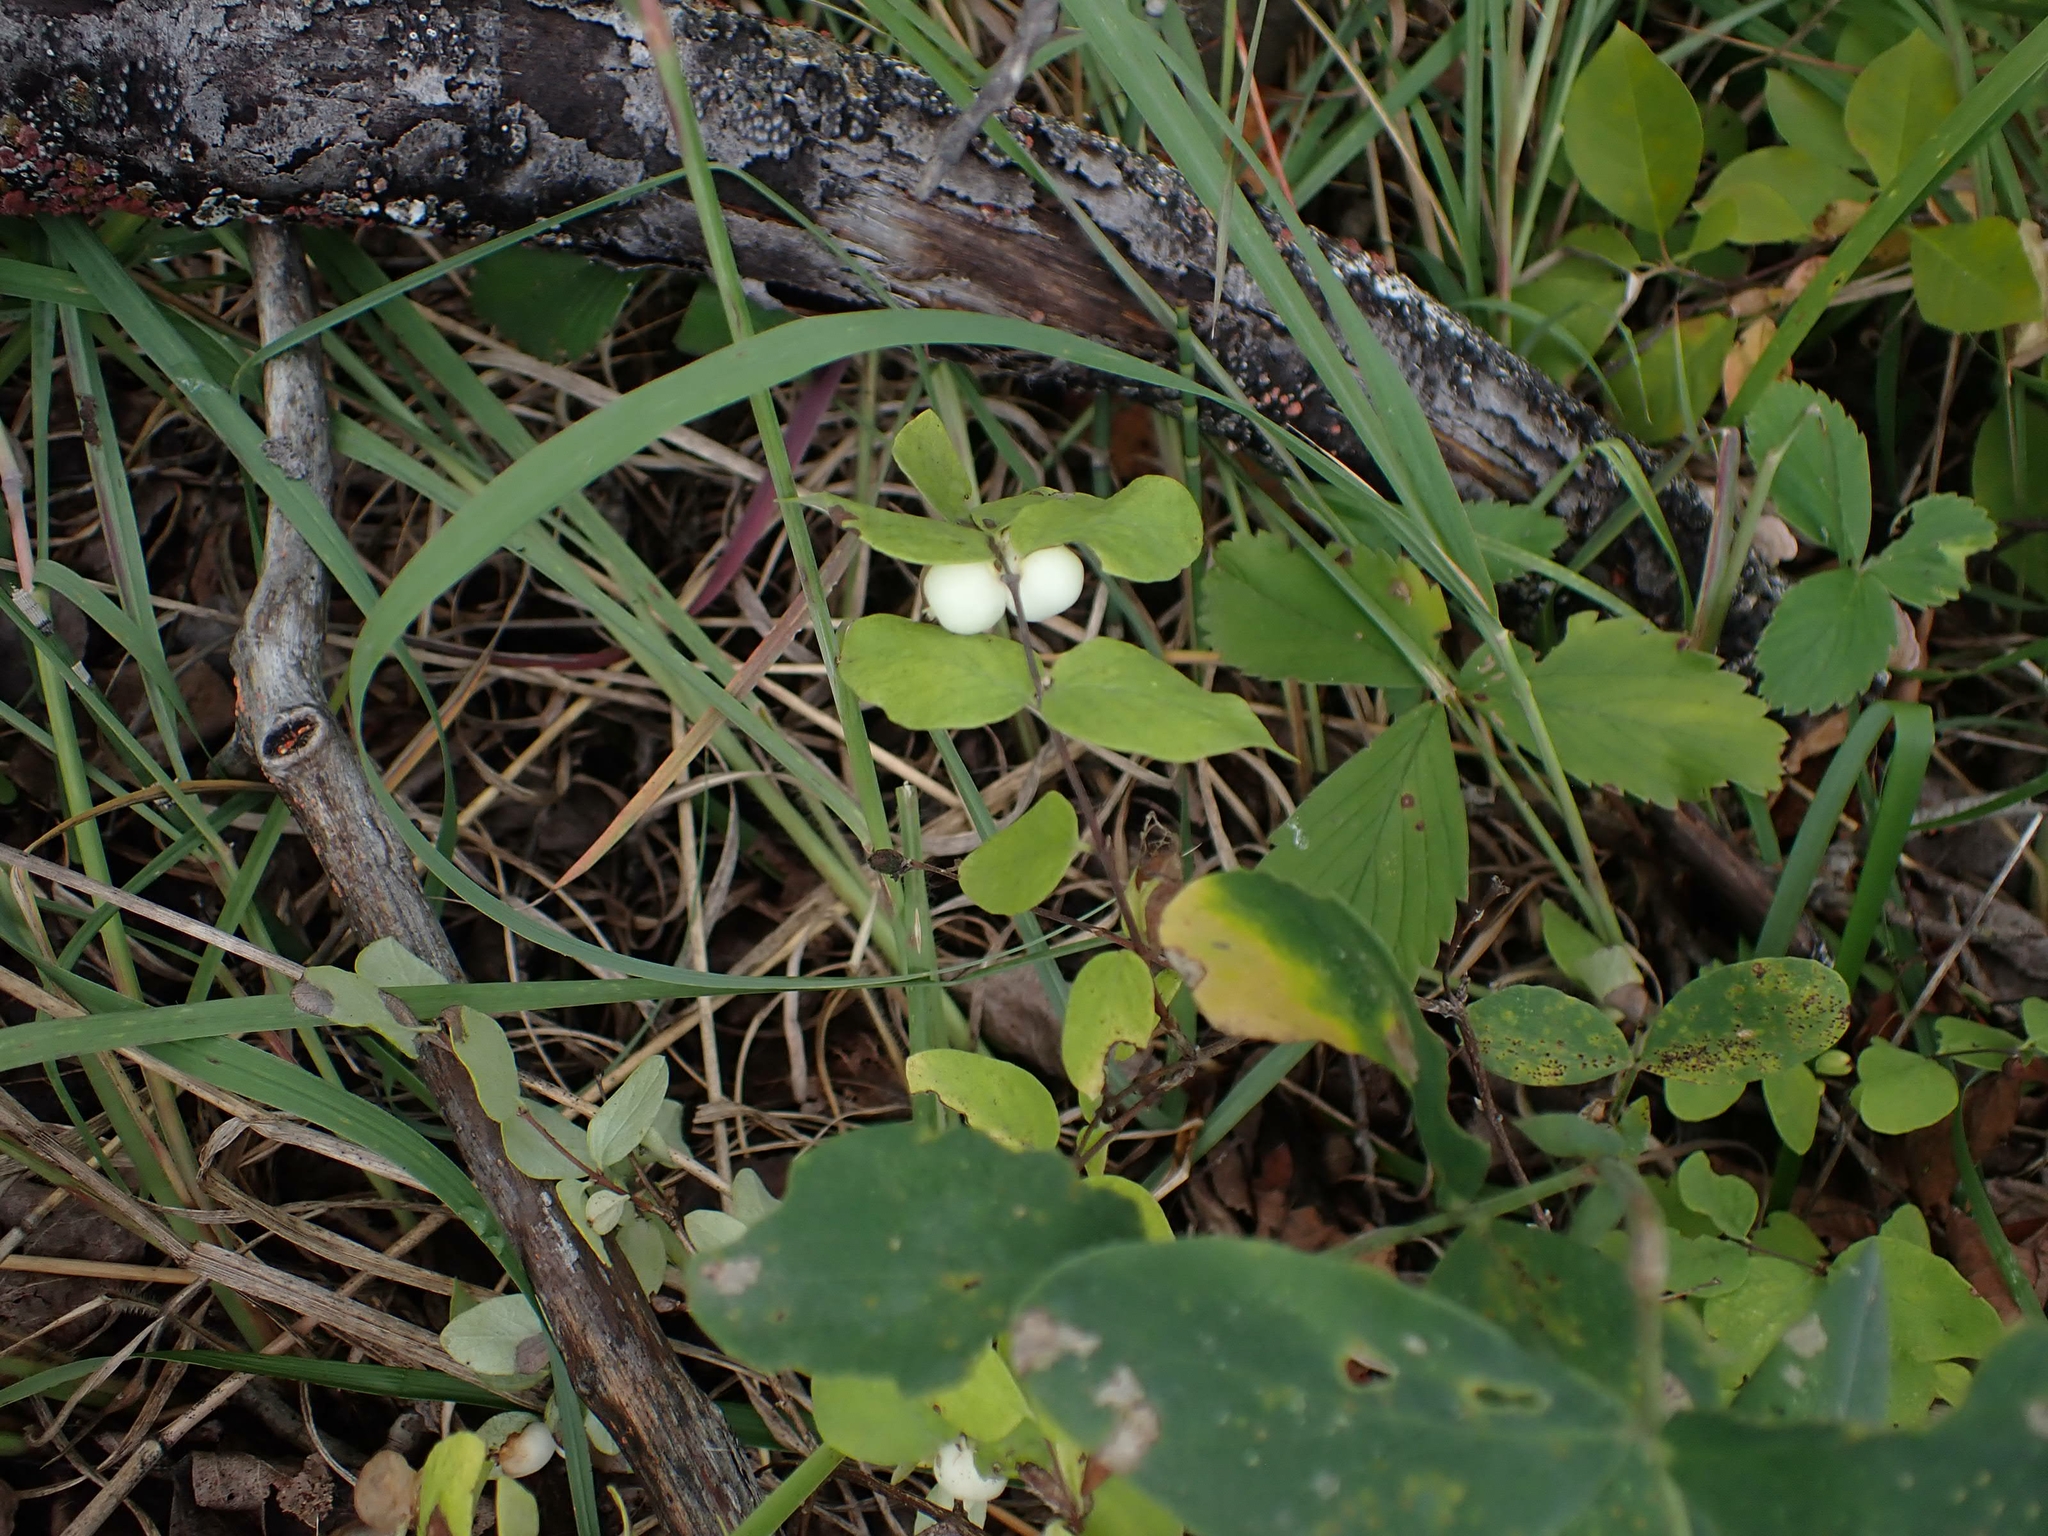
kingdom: Plantae
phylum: Tracheophyta
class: Magnoliopsida
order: Dipsacales
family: Caprifoliaceae
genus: Symphoricarpos
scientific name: Symphoricarpos albus
